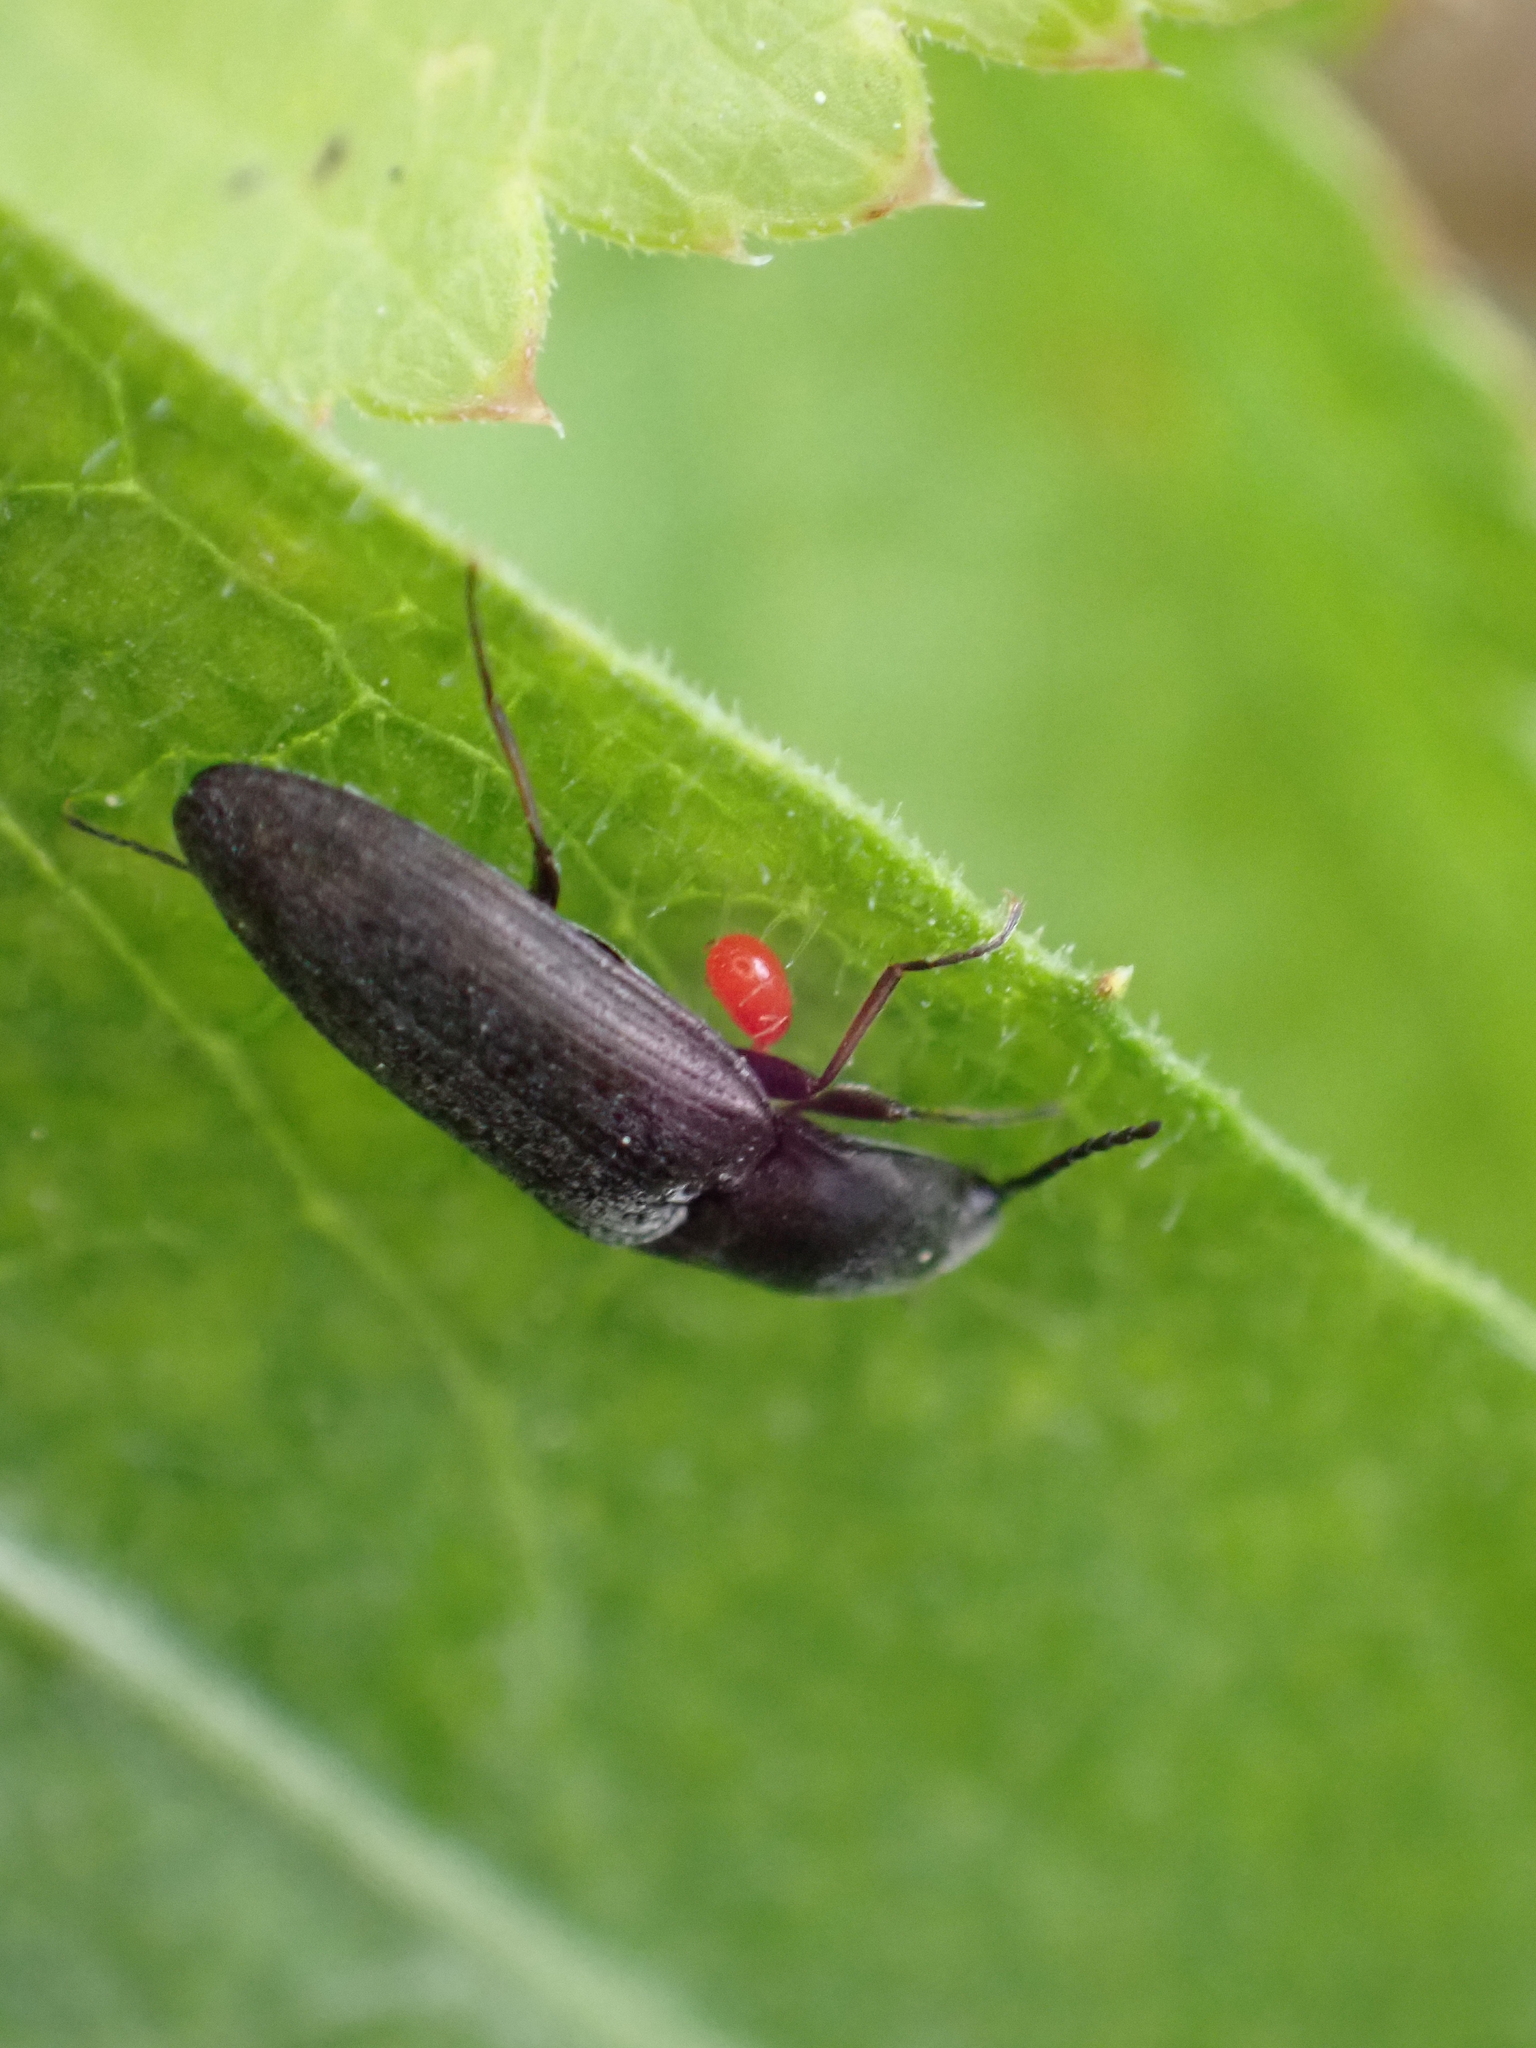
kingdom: Animalia
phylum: Arthropoda
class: Insecta
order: Coleoptera
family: Elateridae
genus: Aplotarsus
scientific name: Aplotarsus incanus
